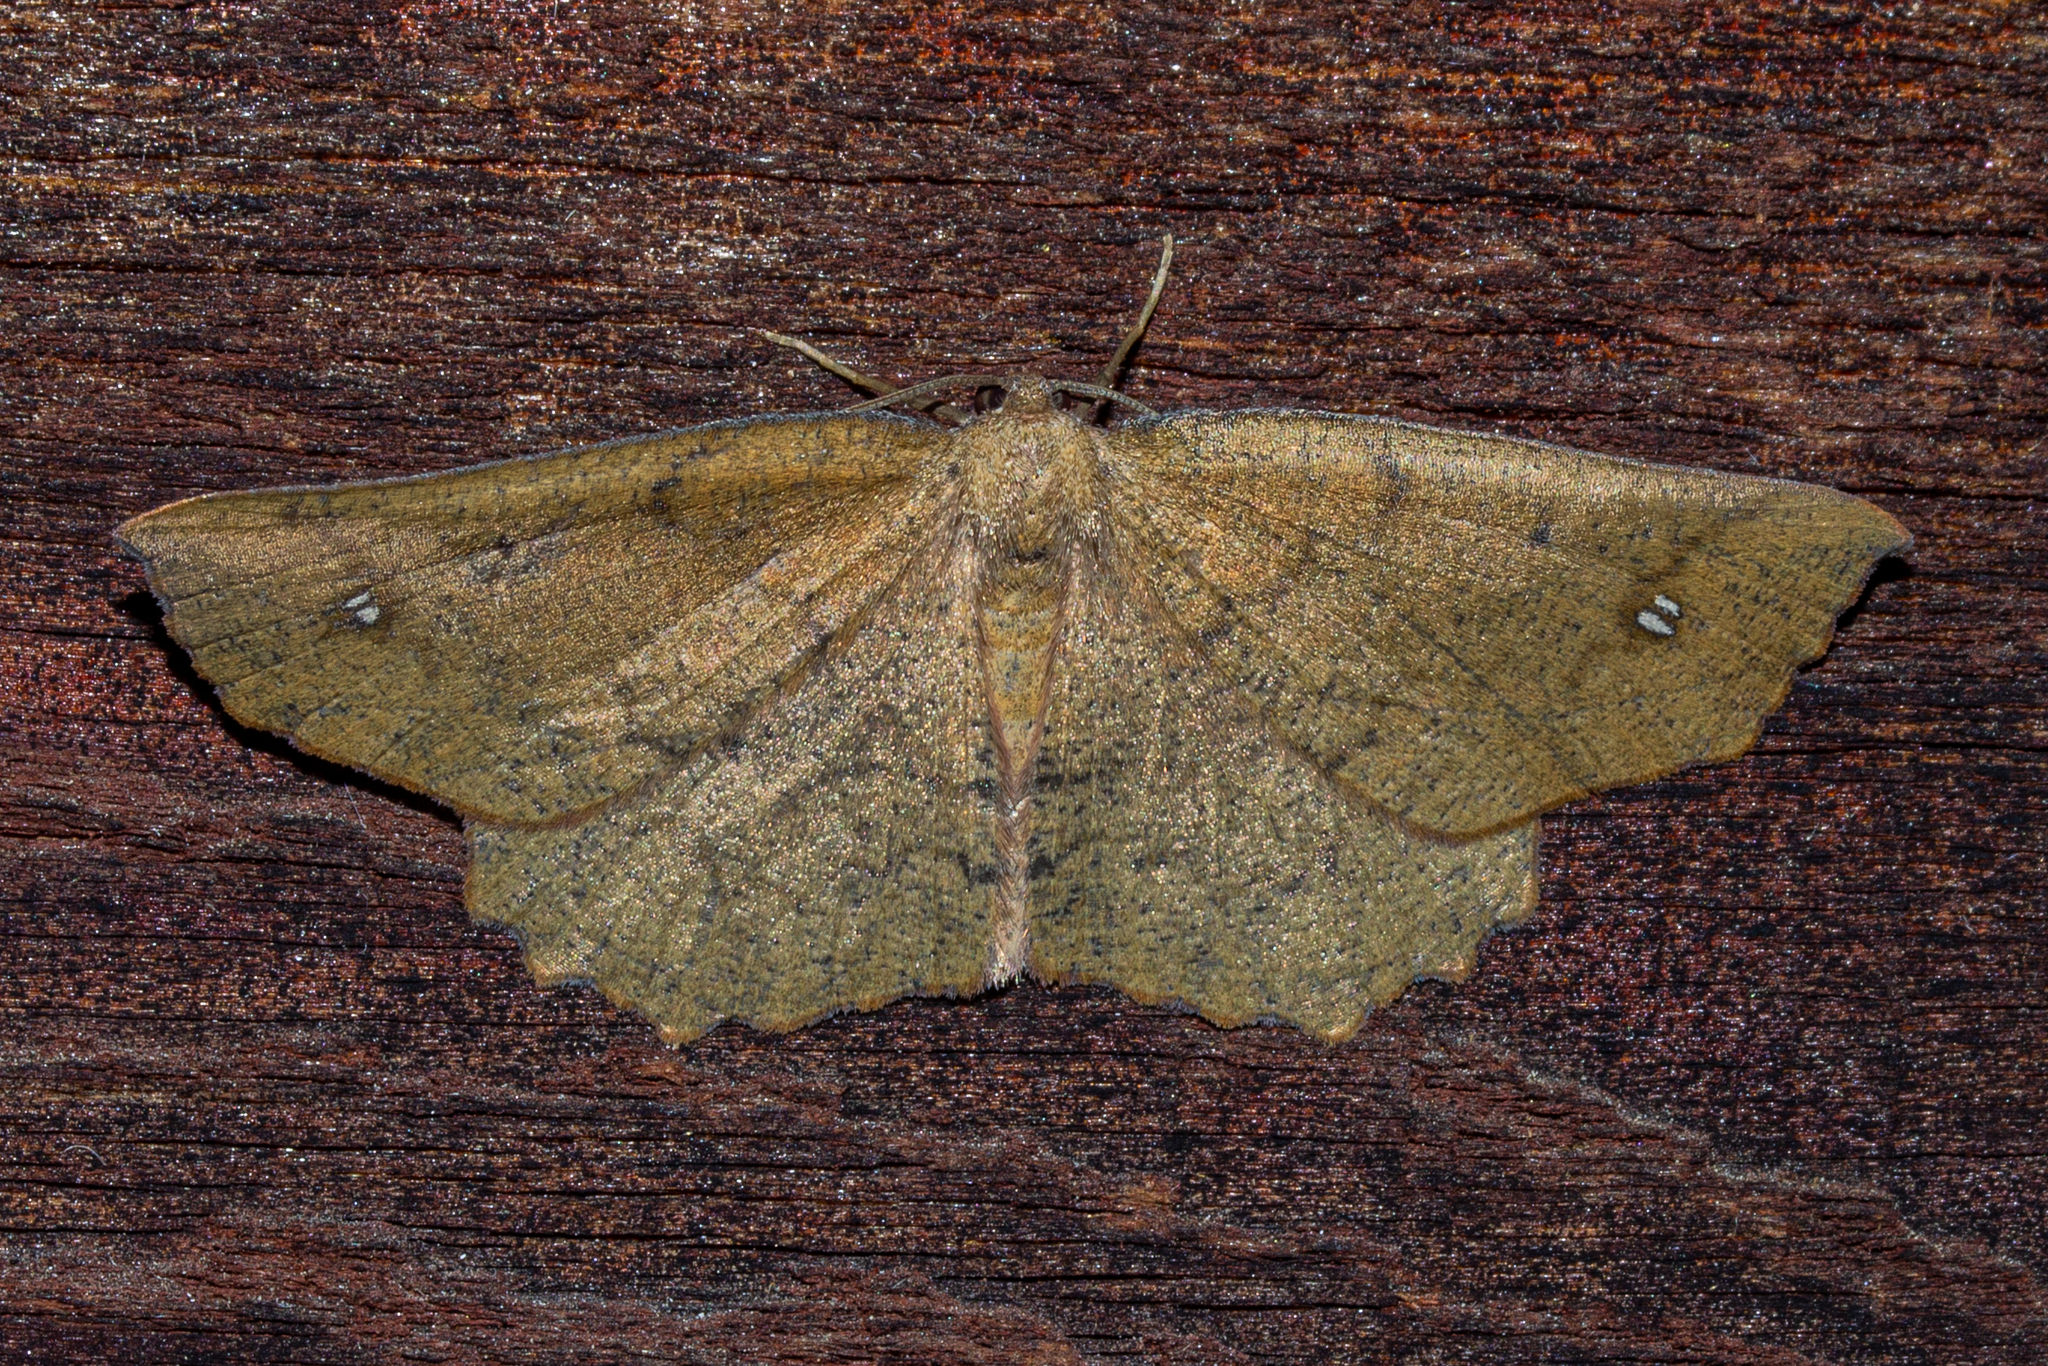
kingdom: Animalia
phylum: Arthropoda
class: Insecta
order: Lepidoptera
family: Geometridae
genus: Xyridacma
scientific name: Xyridacma ustaria
